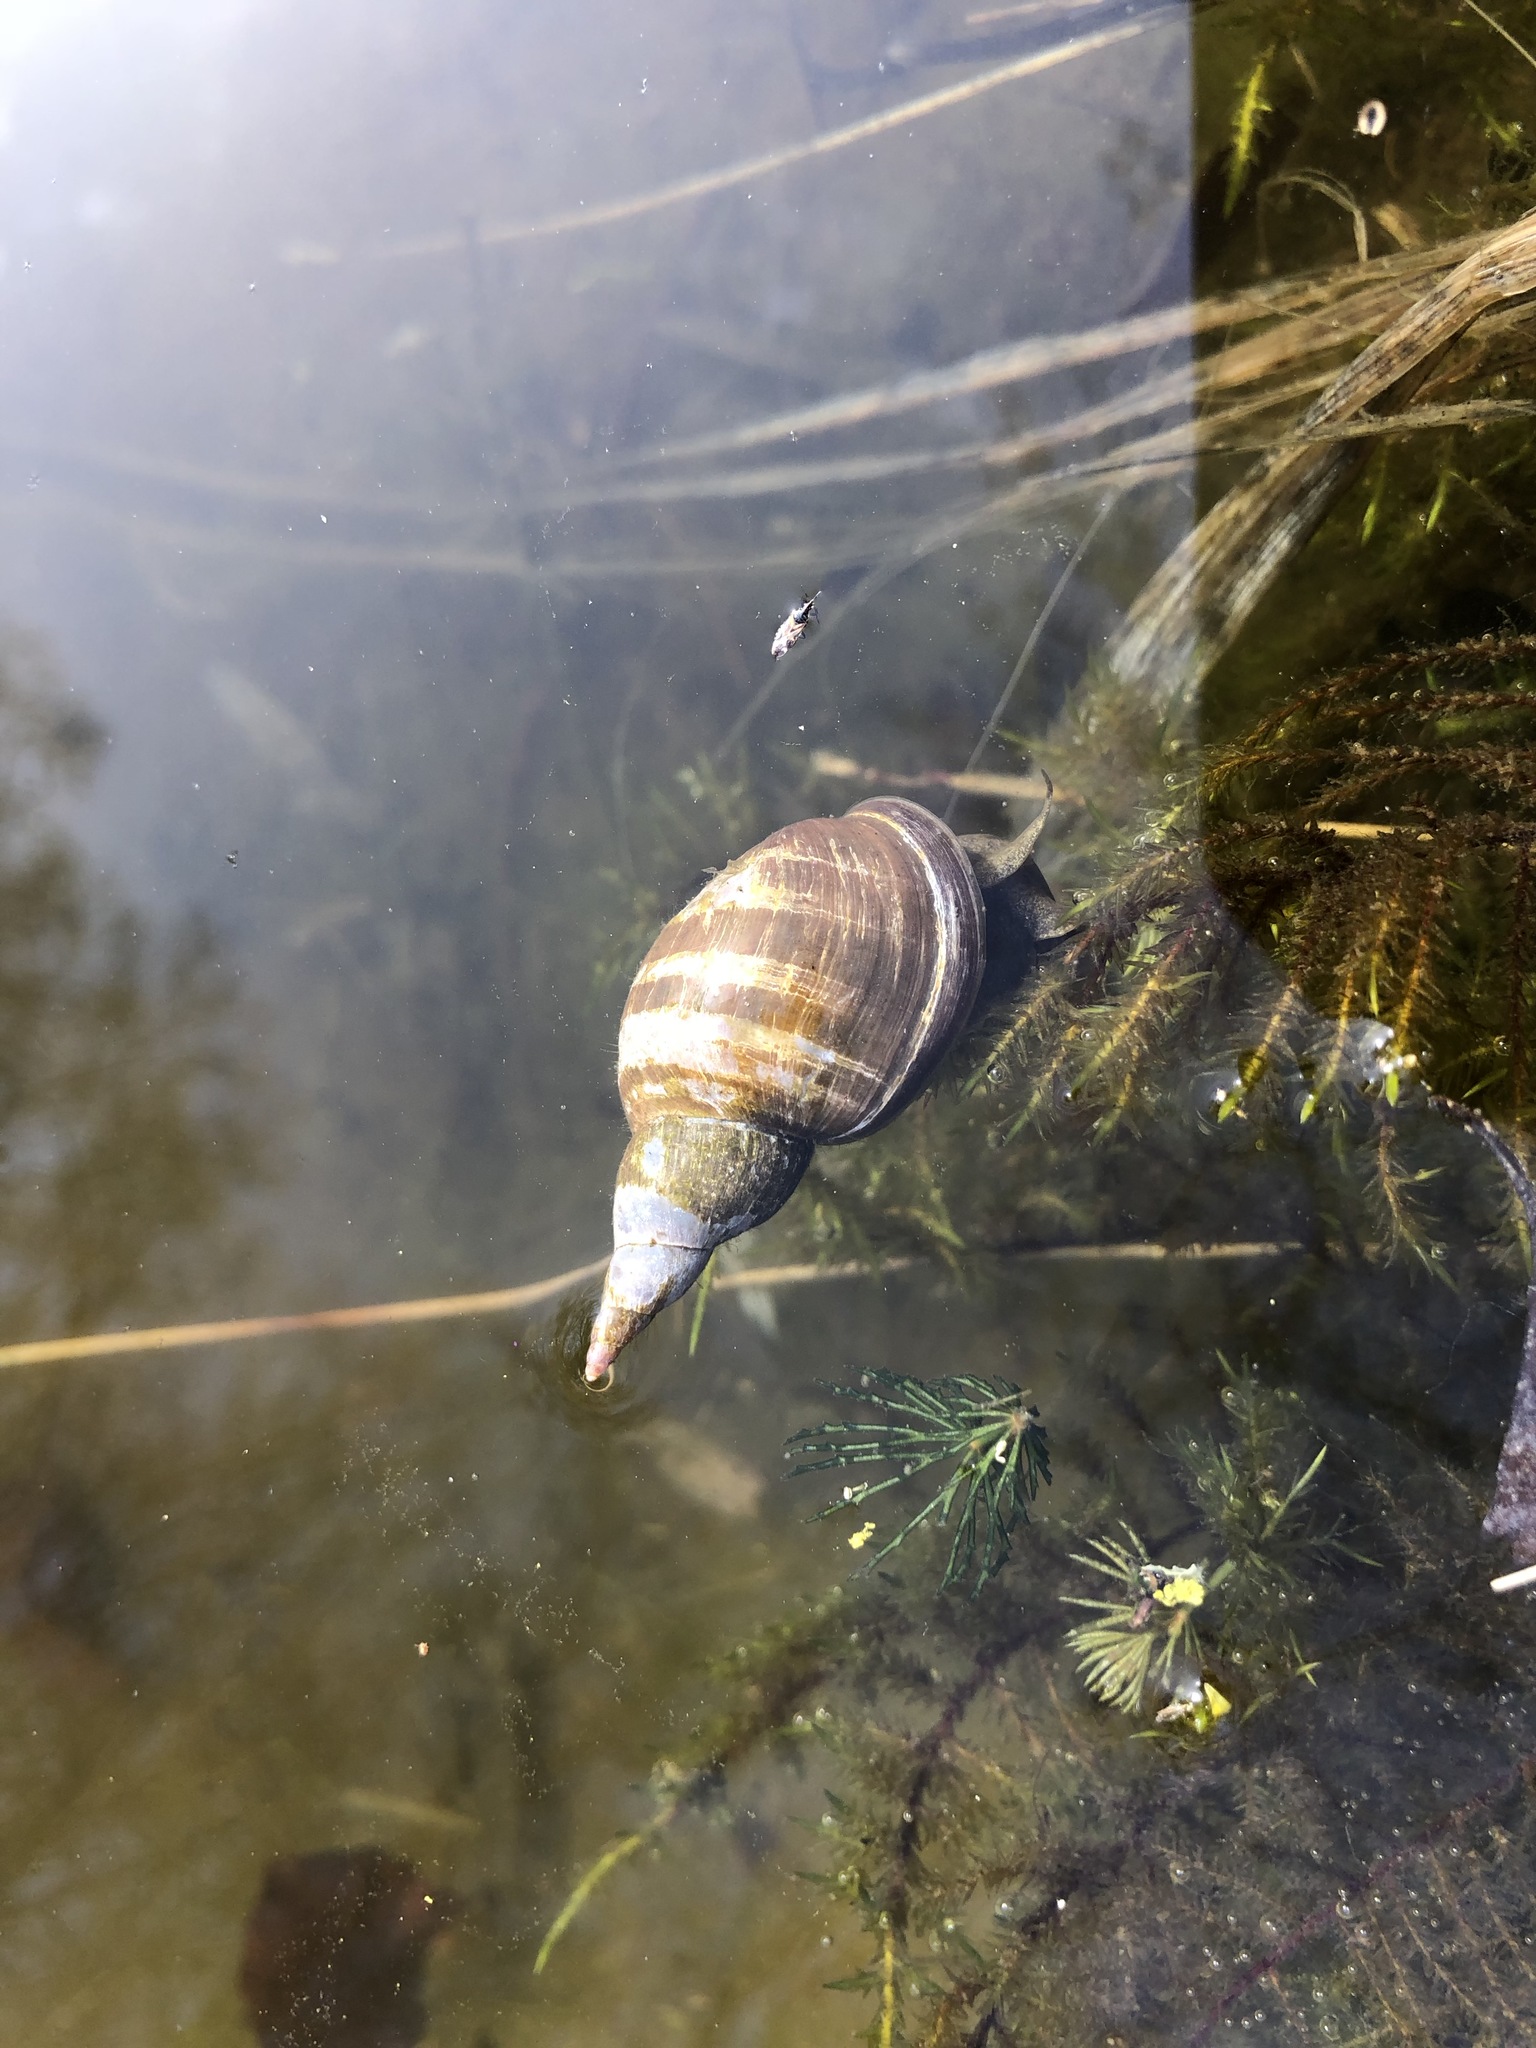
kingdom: Animalia
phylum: Mollusca
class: Gastropoda
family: Lymnaeidae
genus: Lymnaea
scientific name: Lymnaea stagnalis
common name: Great pond snail
